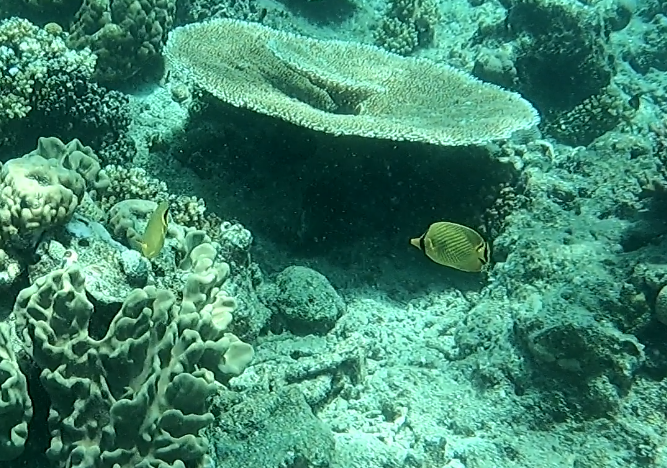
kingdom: Animalia
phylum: Chordata
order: Perciformes
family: Chaetodontidae
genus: Chaetodon
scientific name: Chaetodon rafflesii
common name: Latticed butterflyfish
